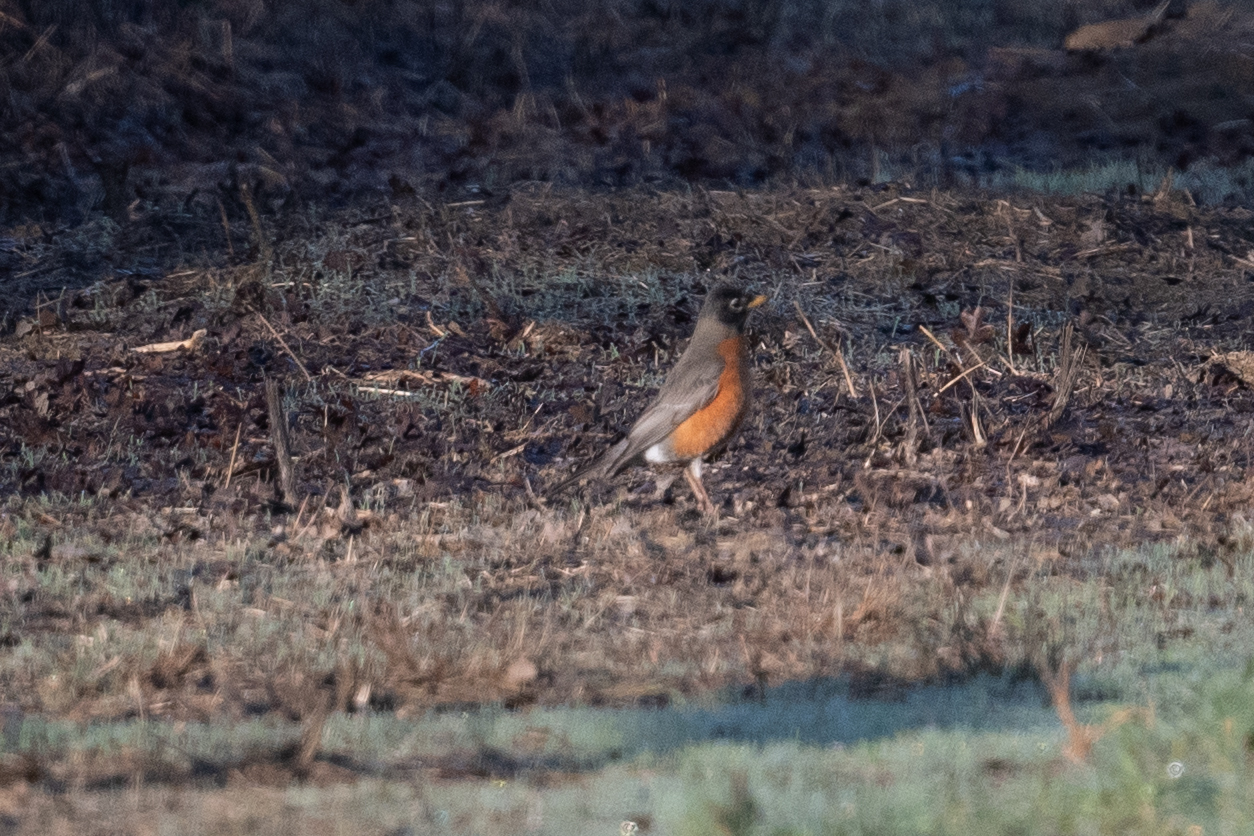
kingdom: Animalia
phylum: Chordata
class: Aves
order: Passeriformes
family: Turdidae
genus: Turdus
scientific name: Turdus migratorius
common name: American robin
